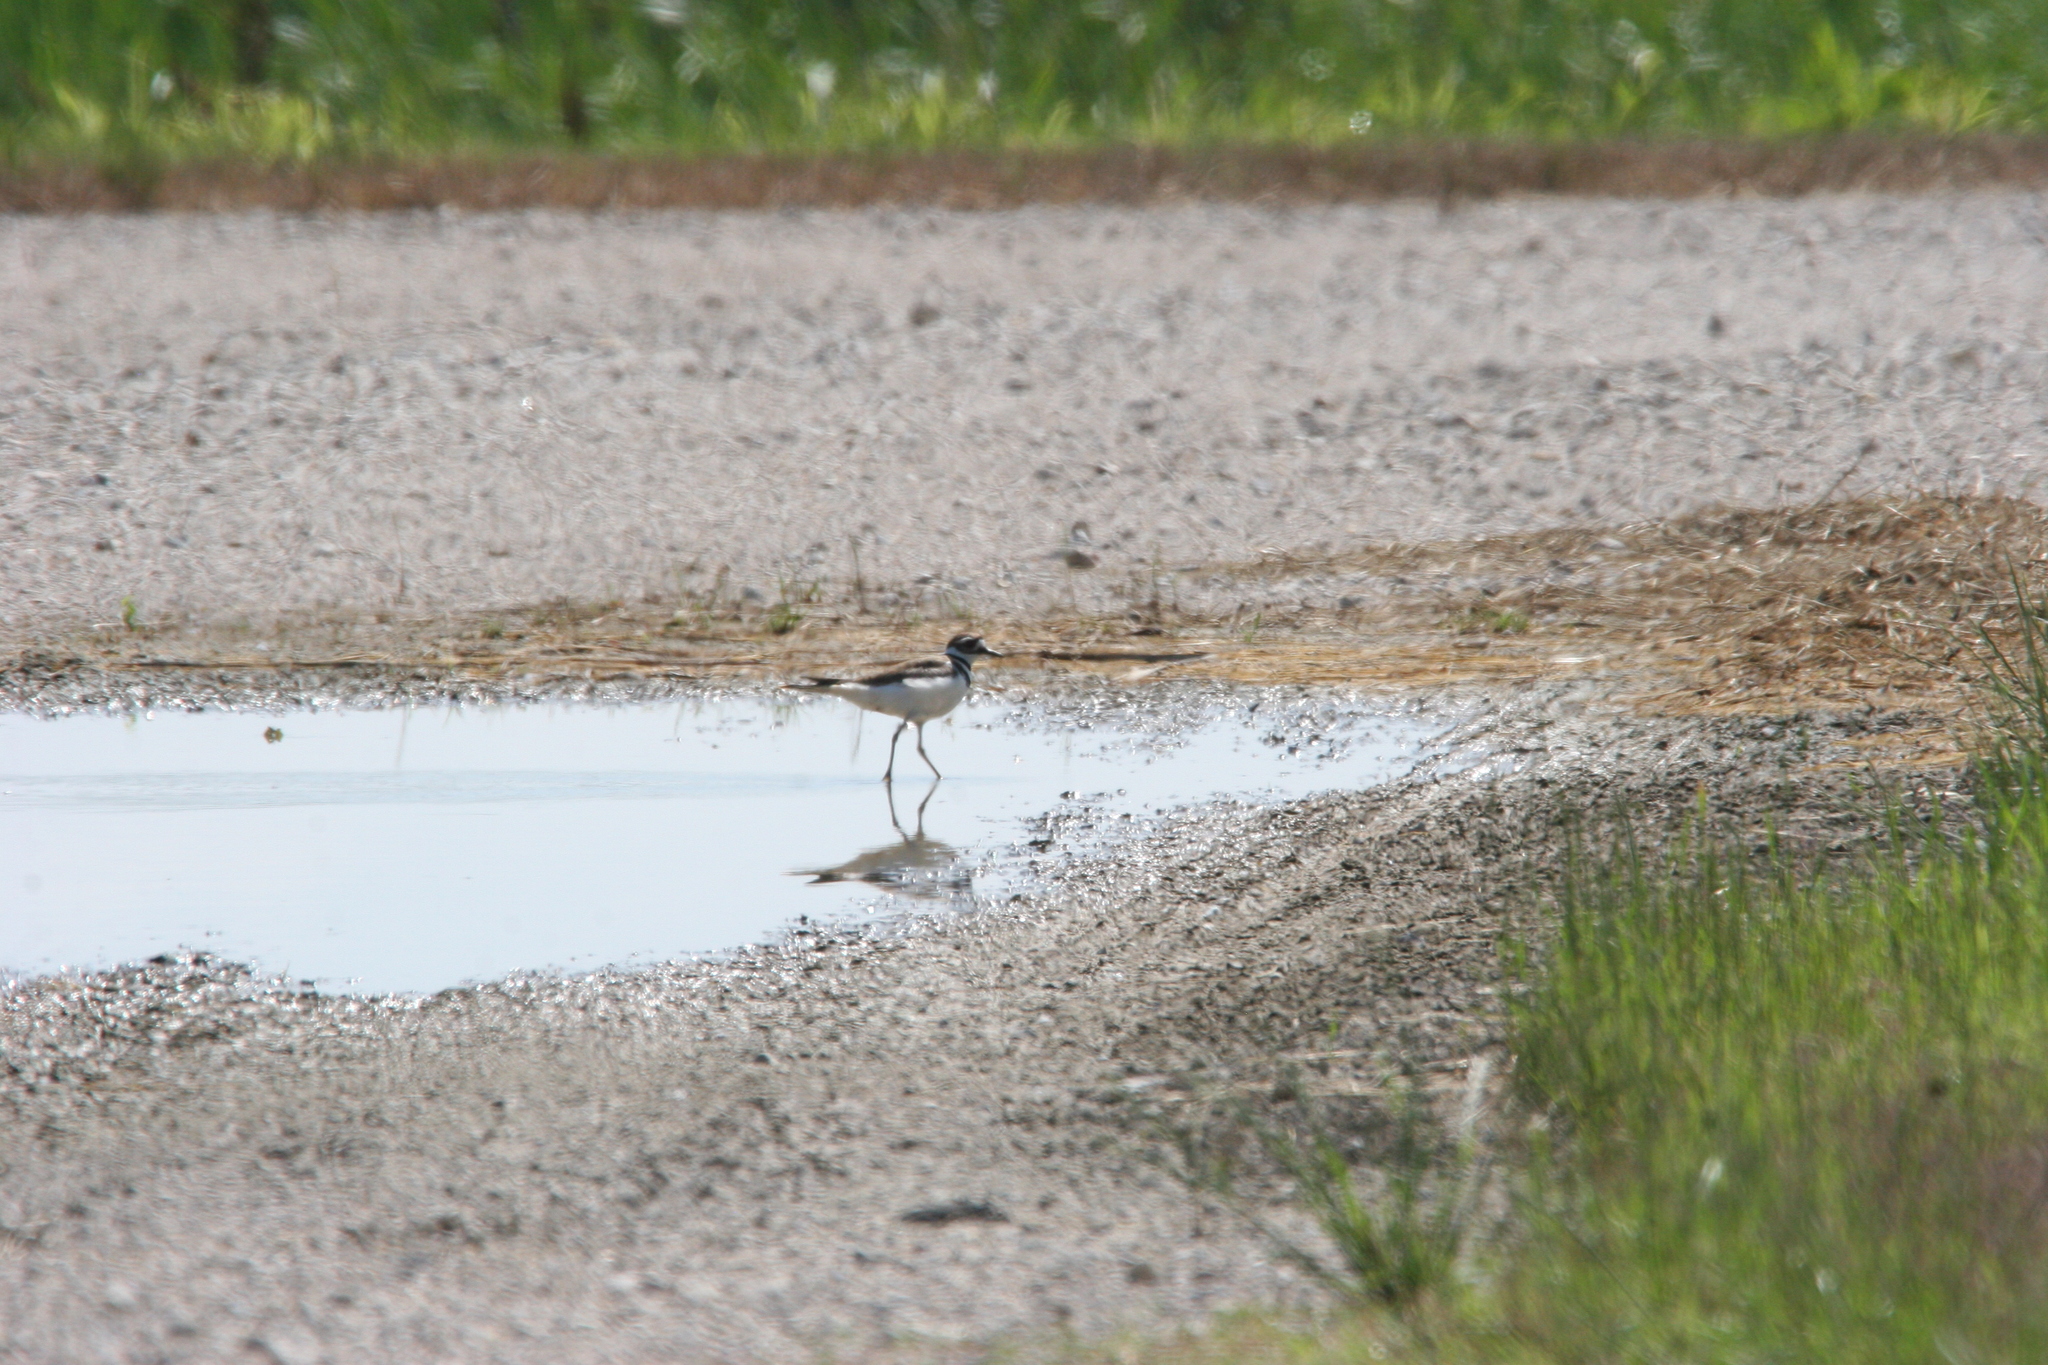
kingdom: Animalia
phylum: Chordata
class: Aves
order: Charadriiformes
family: Charadriidae
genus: Charadrius
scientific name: Charadrius vociferus
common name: Killdeer
